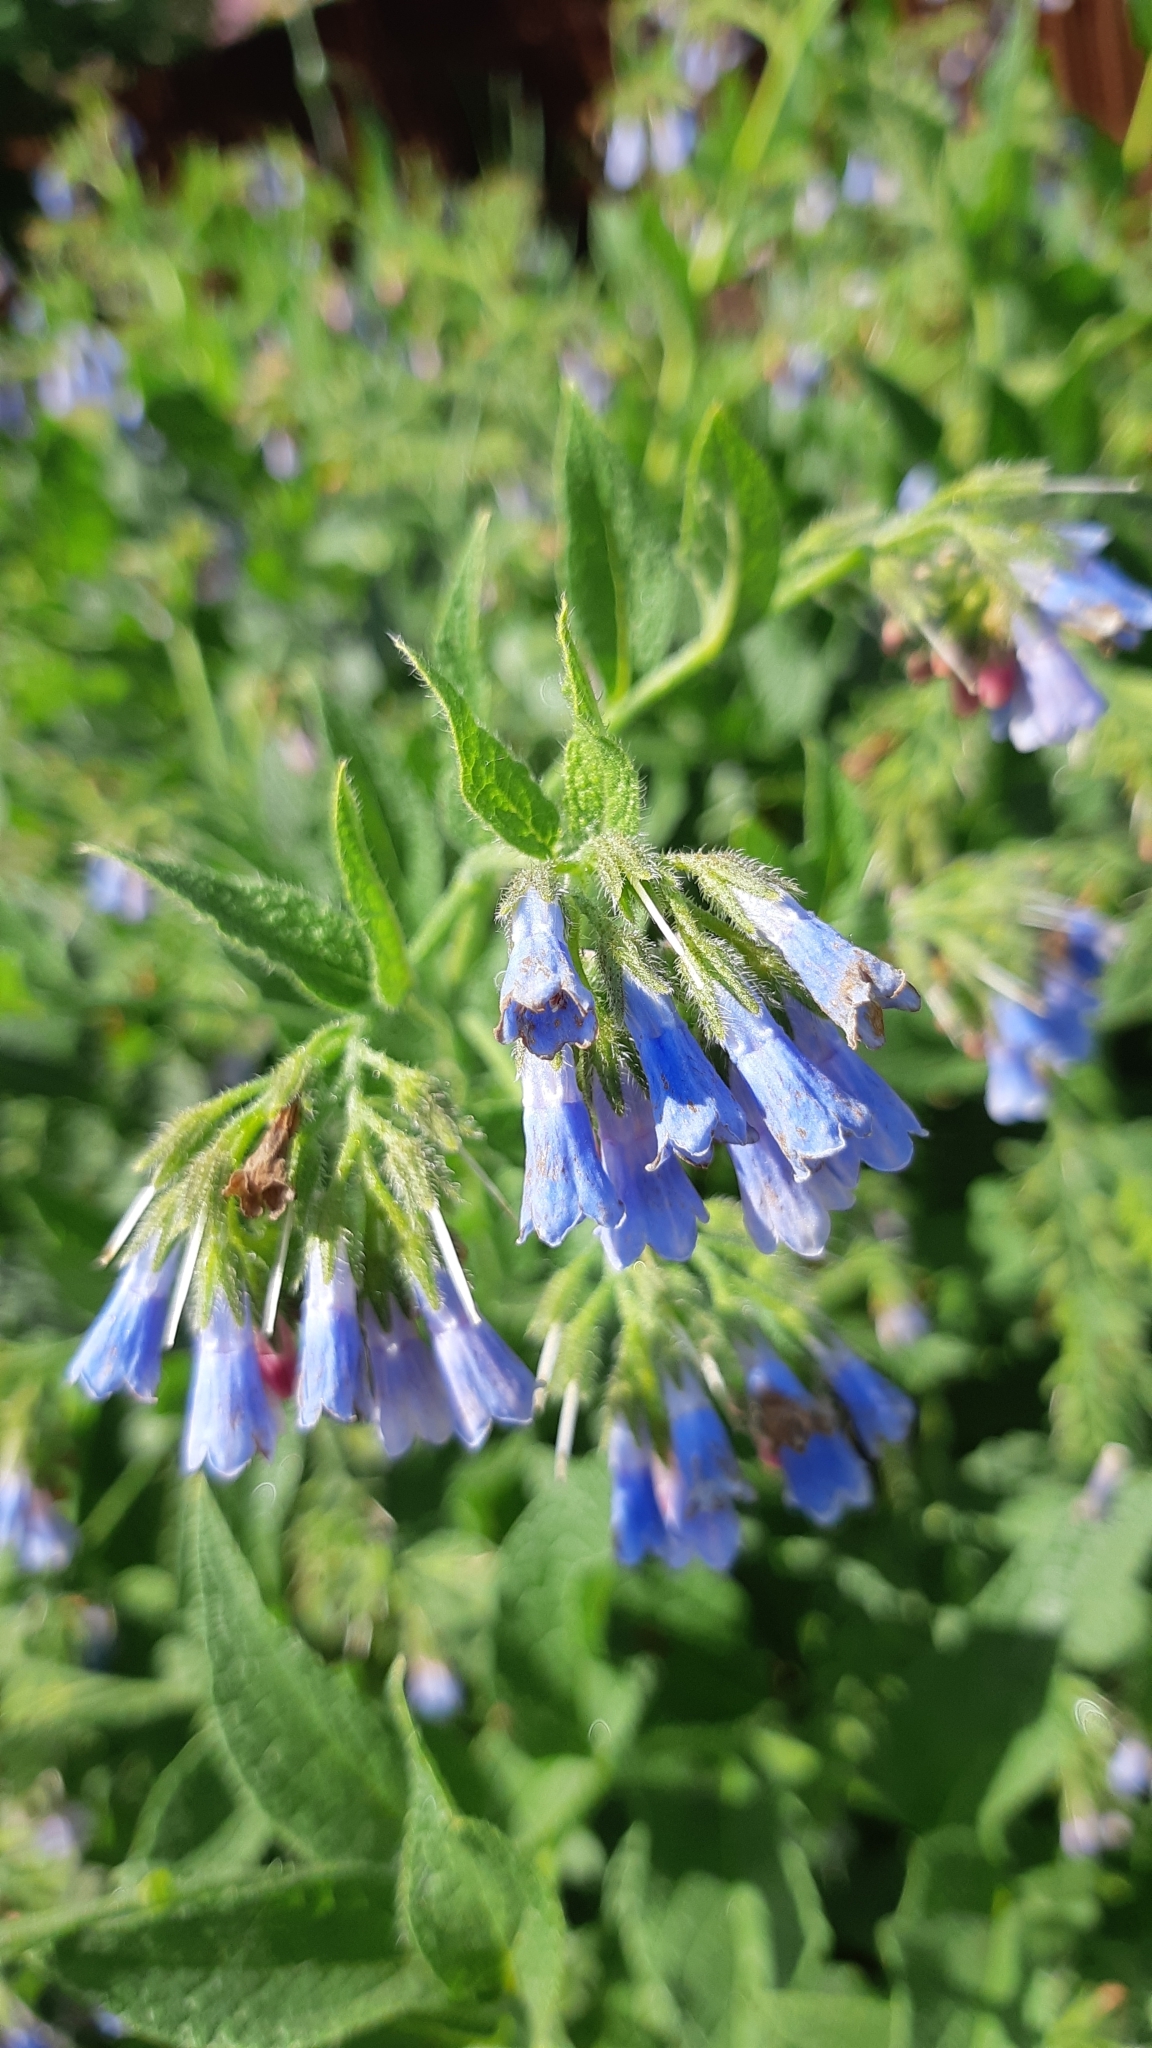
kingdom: Plantae
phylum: Tracheophyta
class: Magnoliopsida
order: Boraginales
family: Boraginaceae
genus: Symphytum
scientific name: Symphytum asperum
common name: Prickly comfrey
